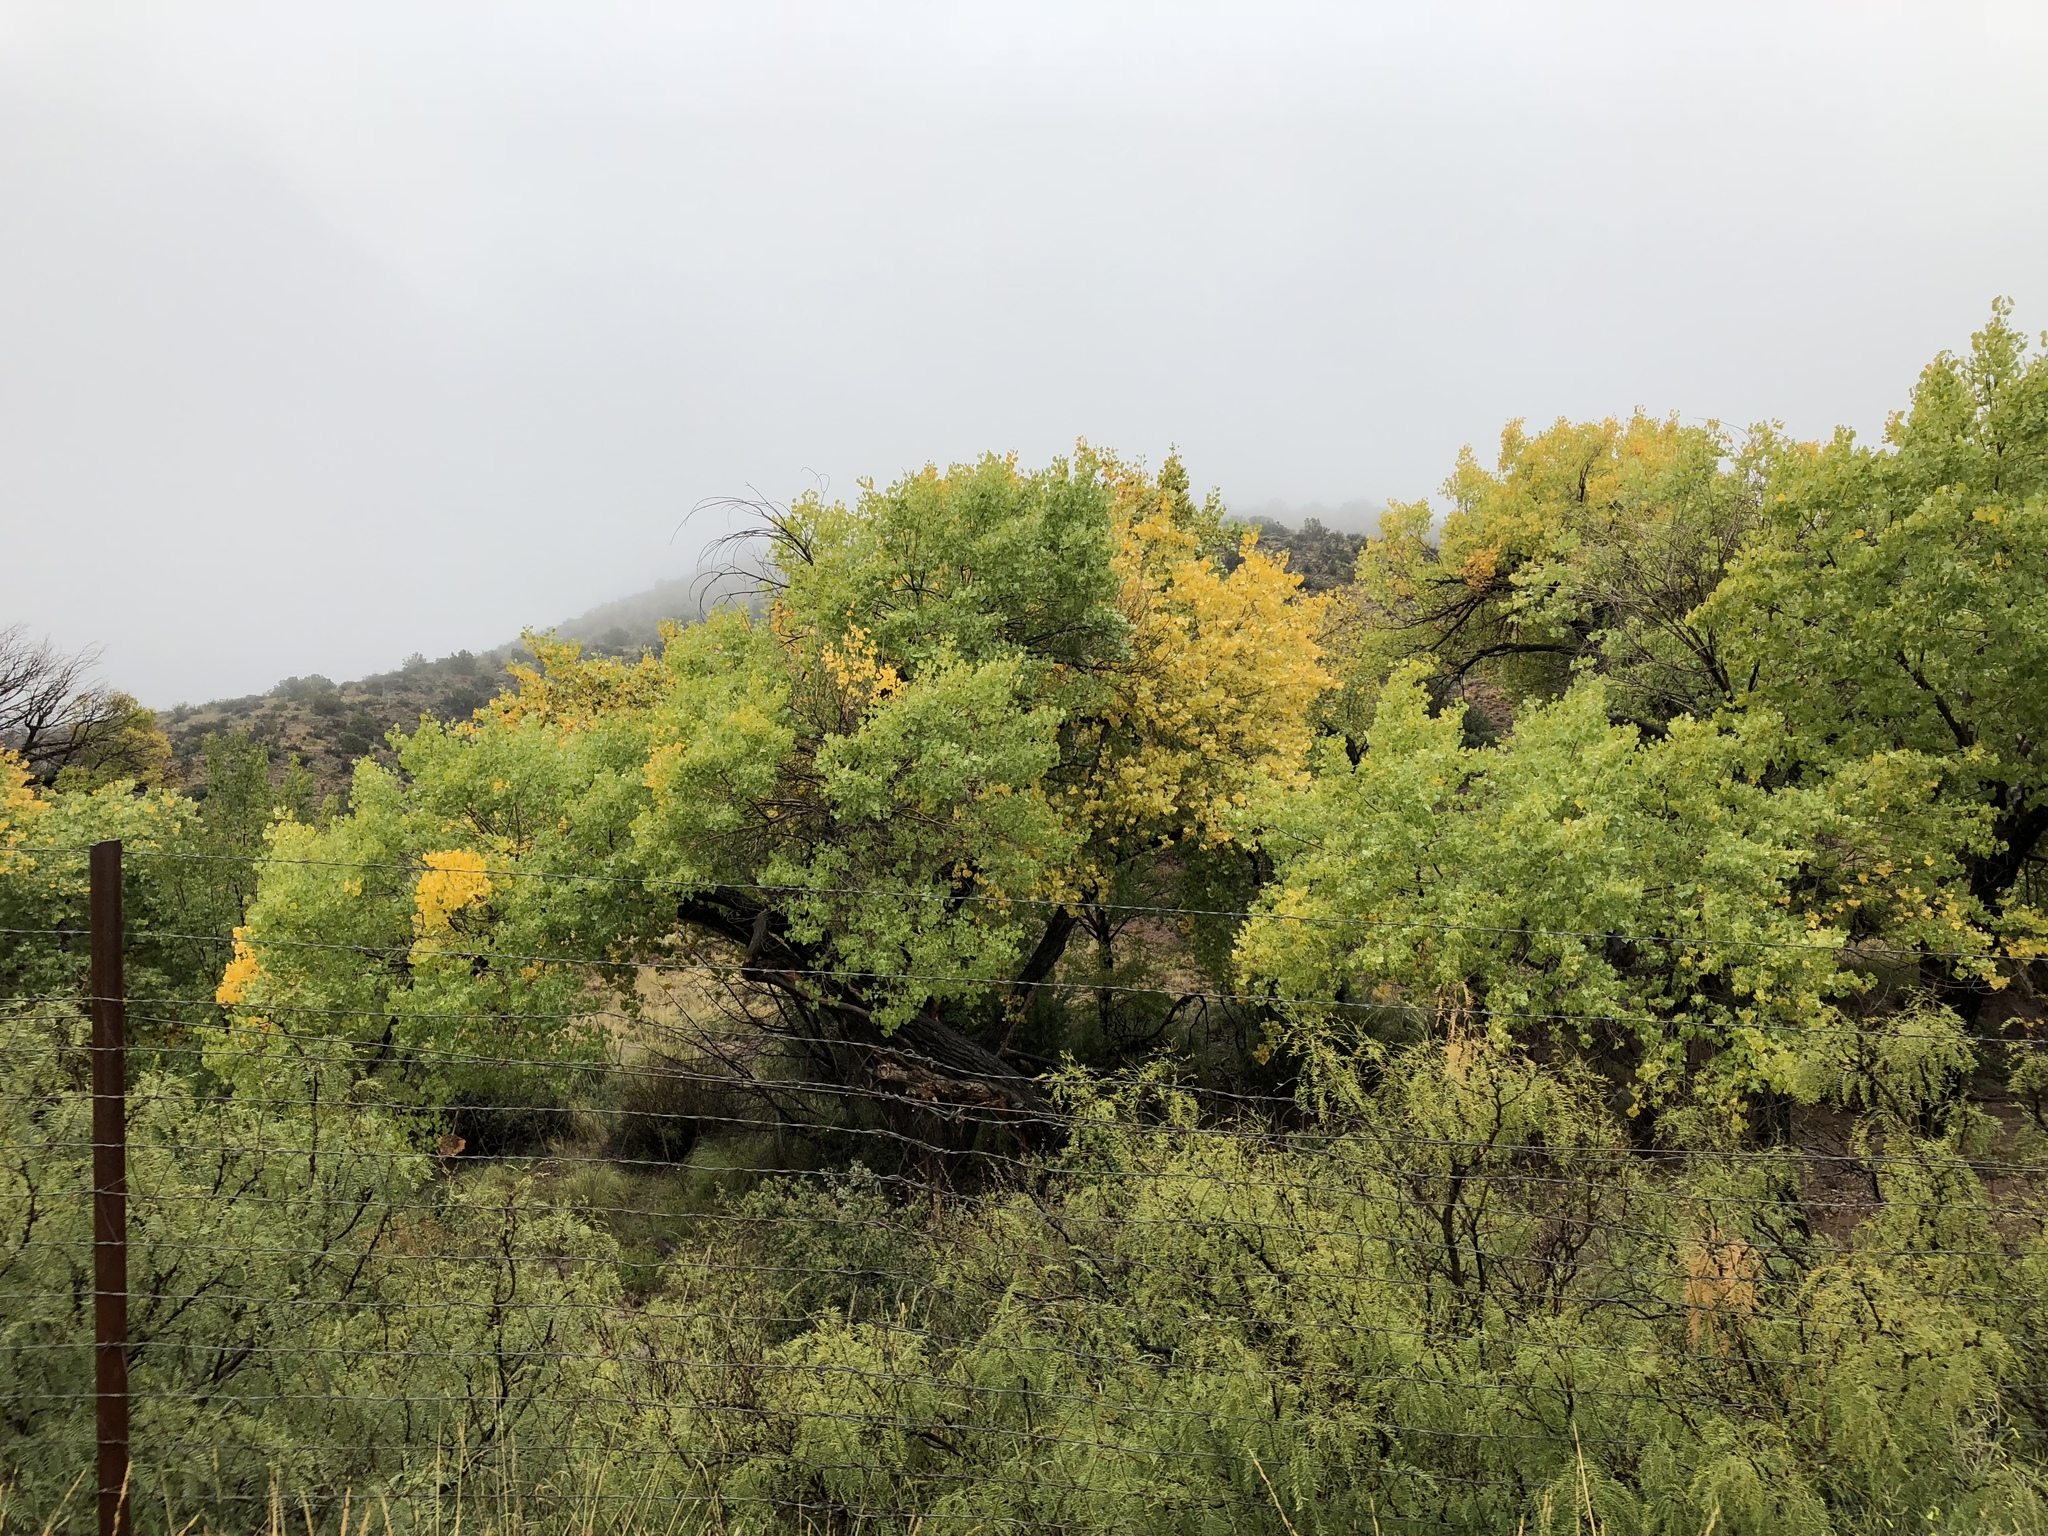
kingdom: Plantae
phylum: Tracheophyta
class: Magnoliopsida
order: Malpighiales
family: Salicaceae
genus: Populus
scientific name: Populus fremontii
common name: Fremont's cottonwood
